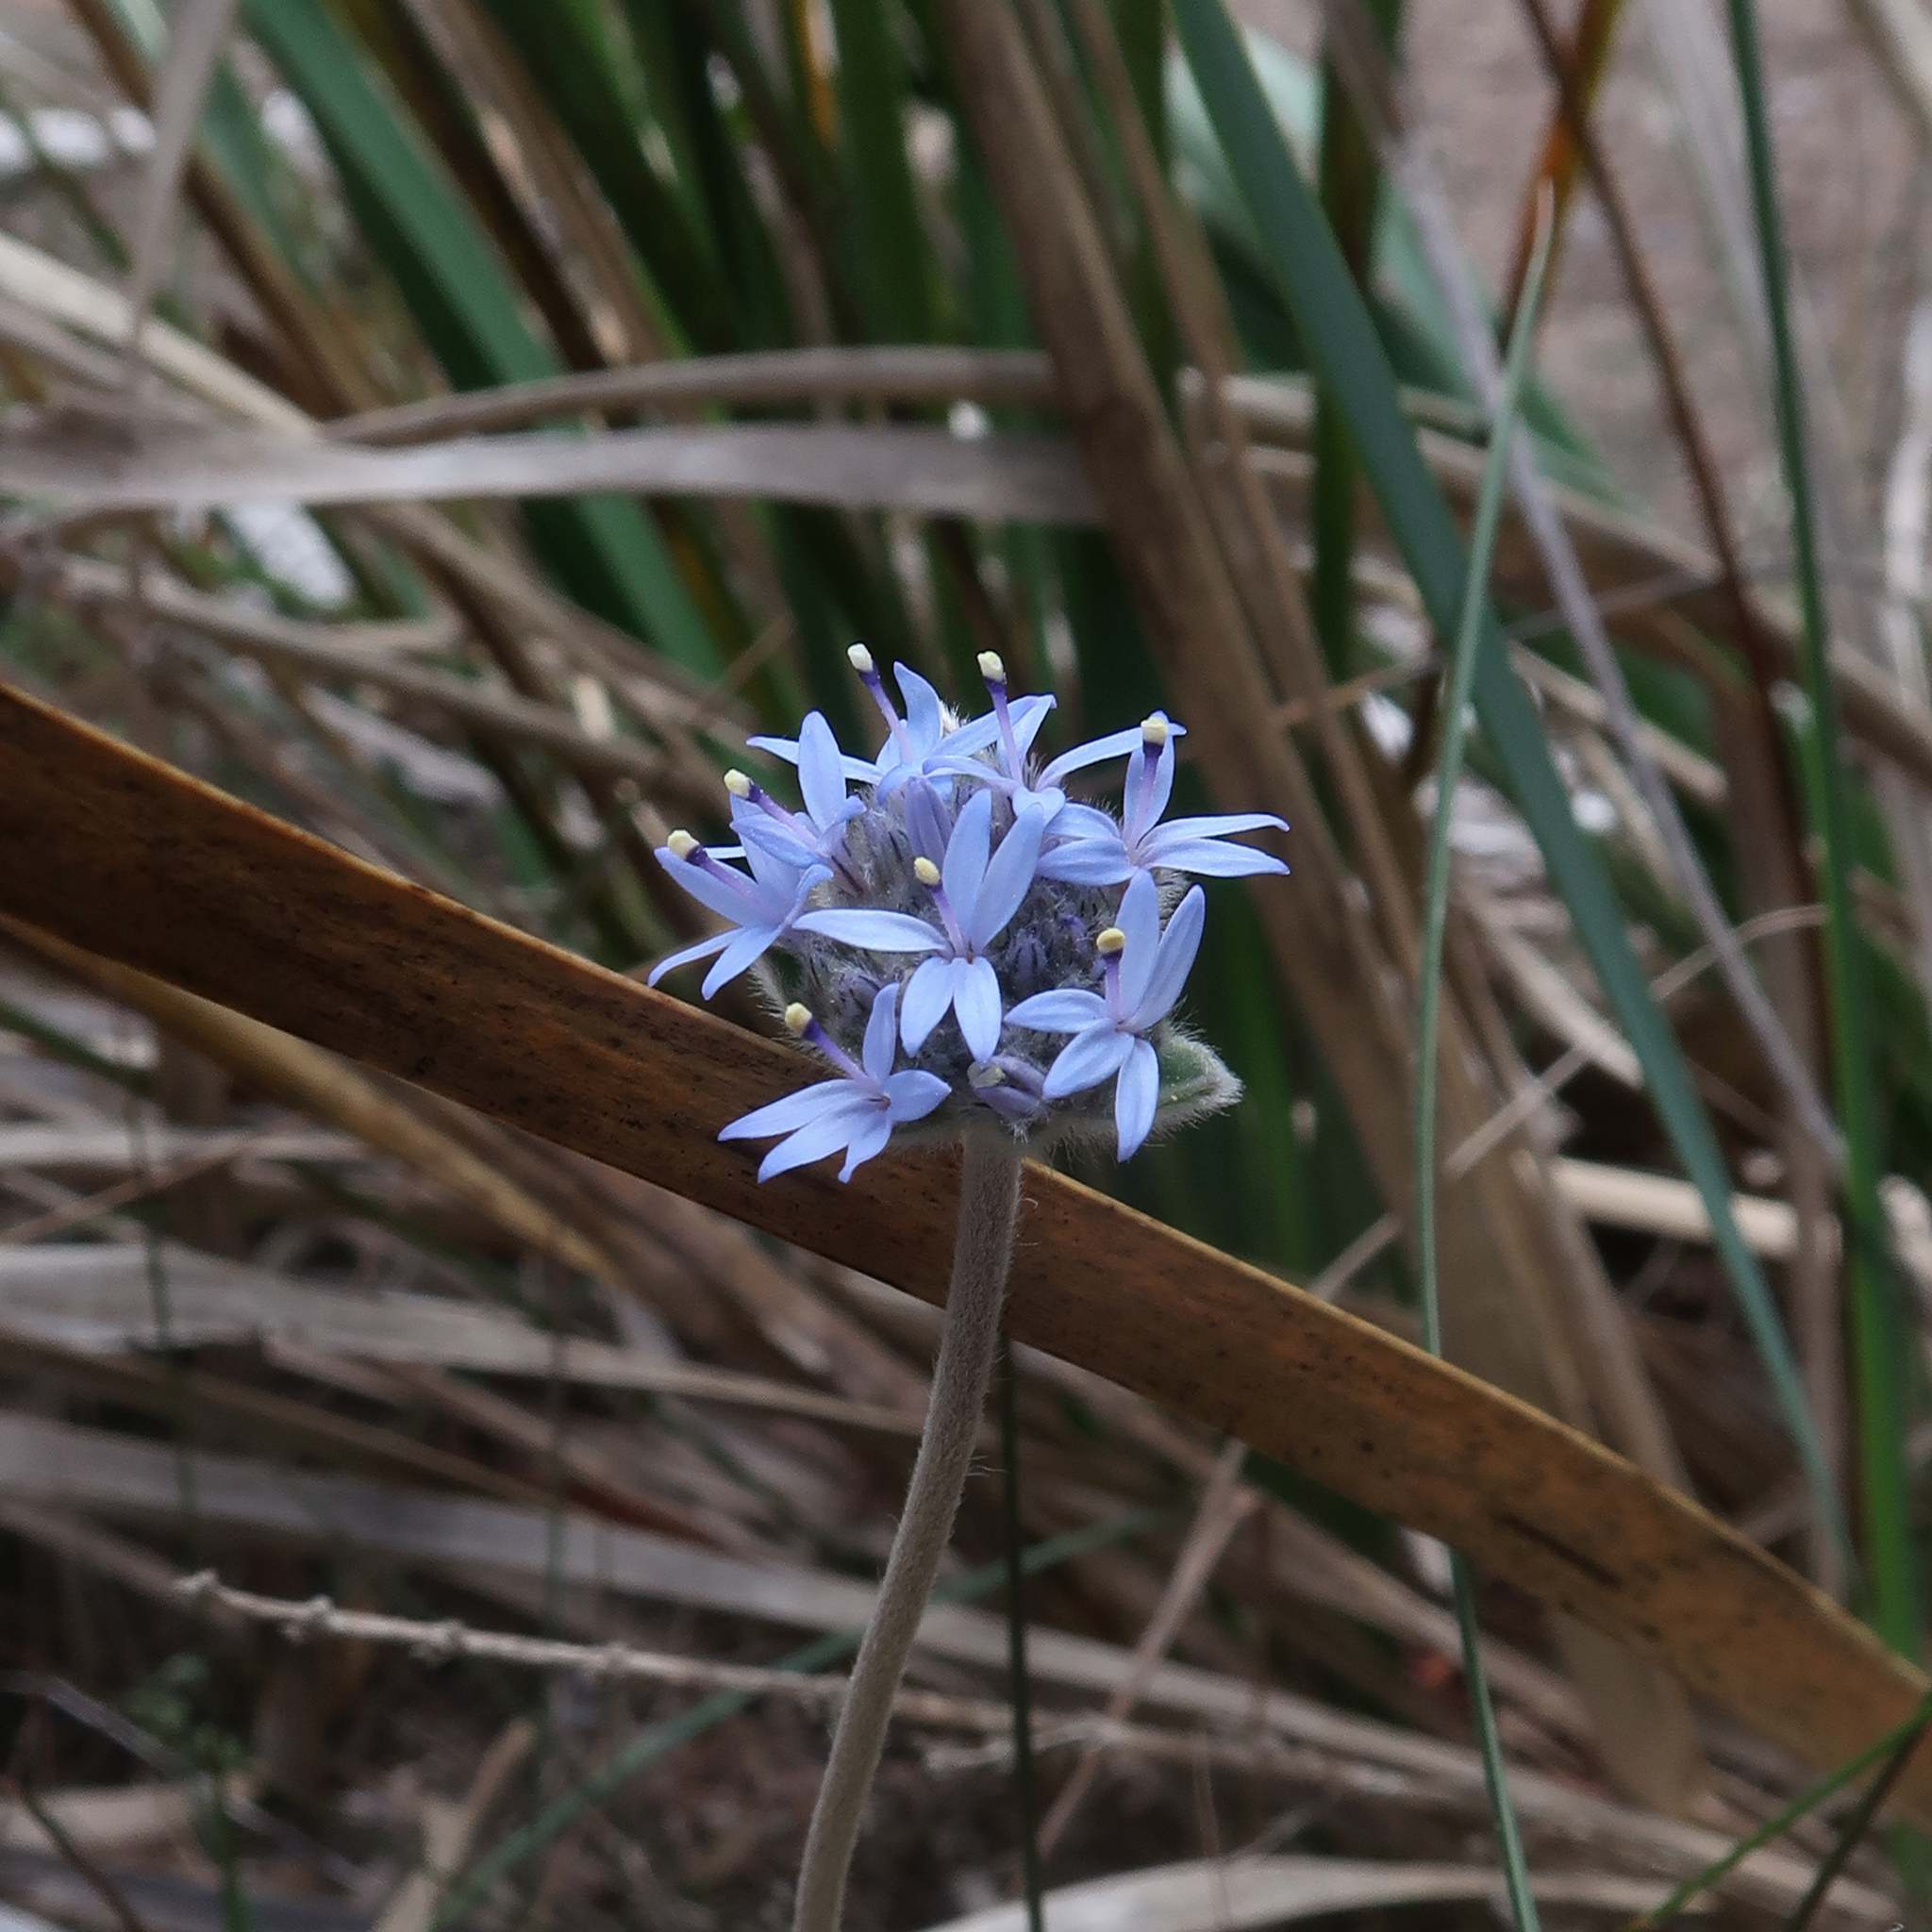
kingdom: Plantae
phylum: Tracheophyta
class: Magnoliopsida
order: Asterales
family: Goodeniaceae
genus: Brunonia
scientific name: Brunonia australis
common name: Blue pincushion
